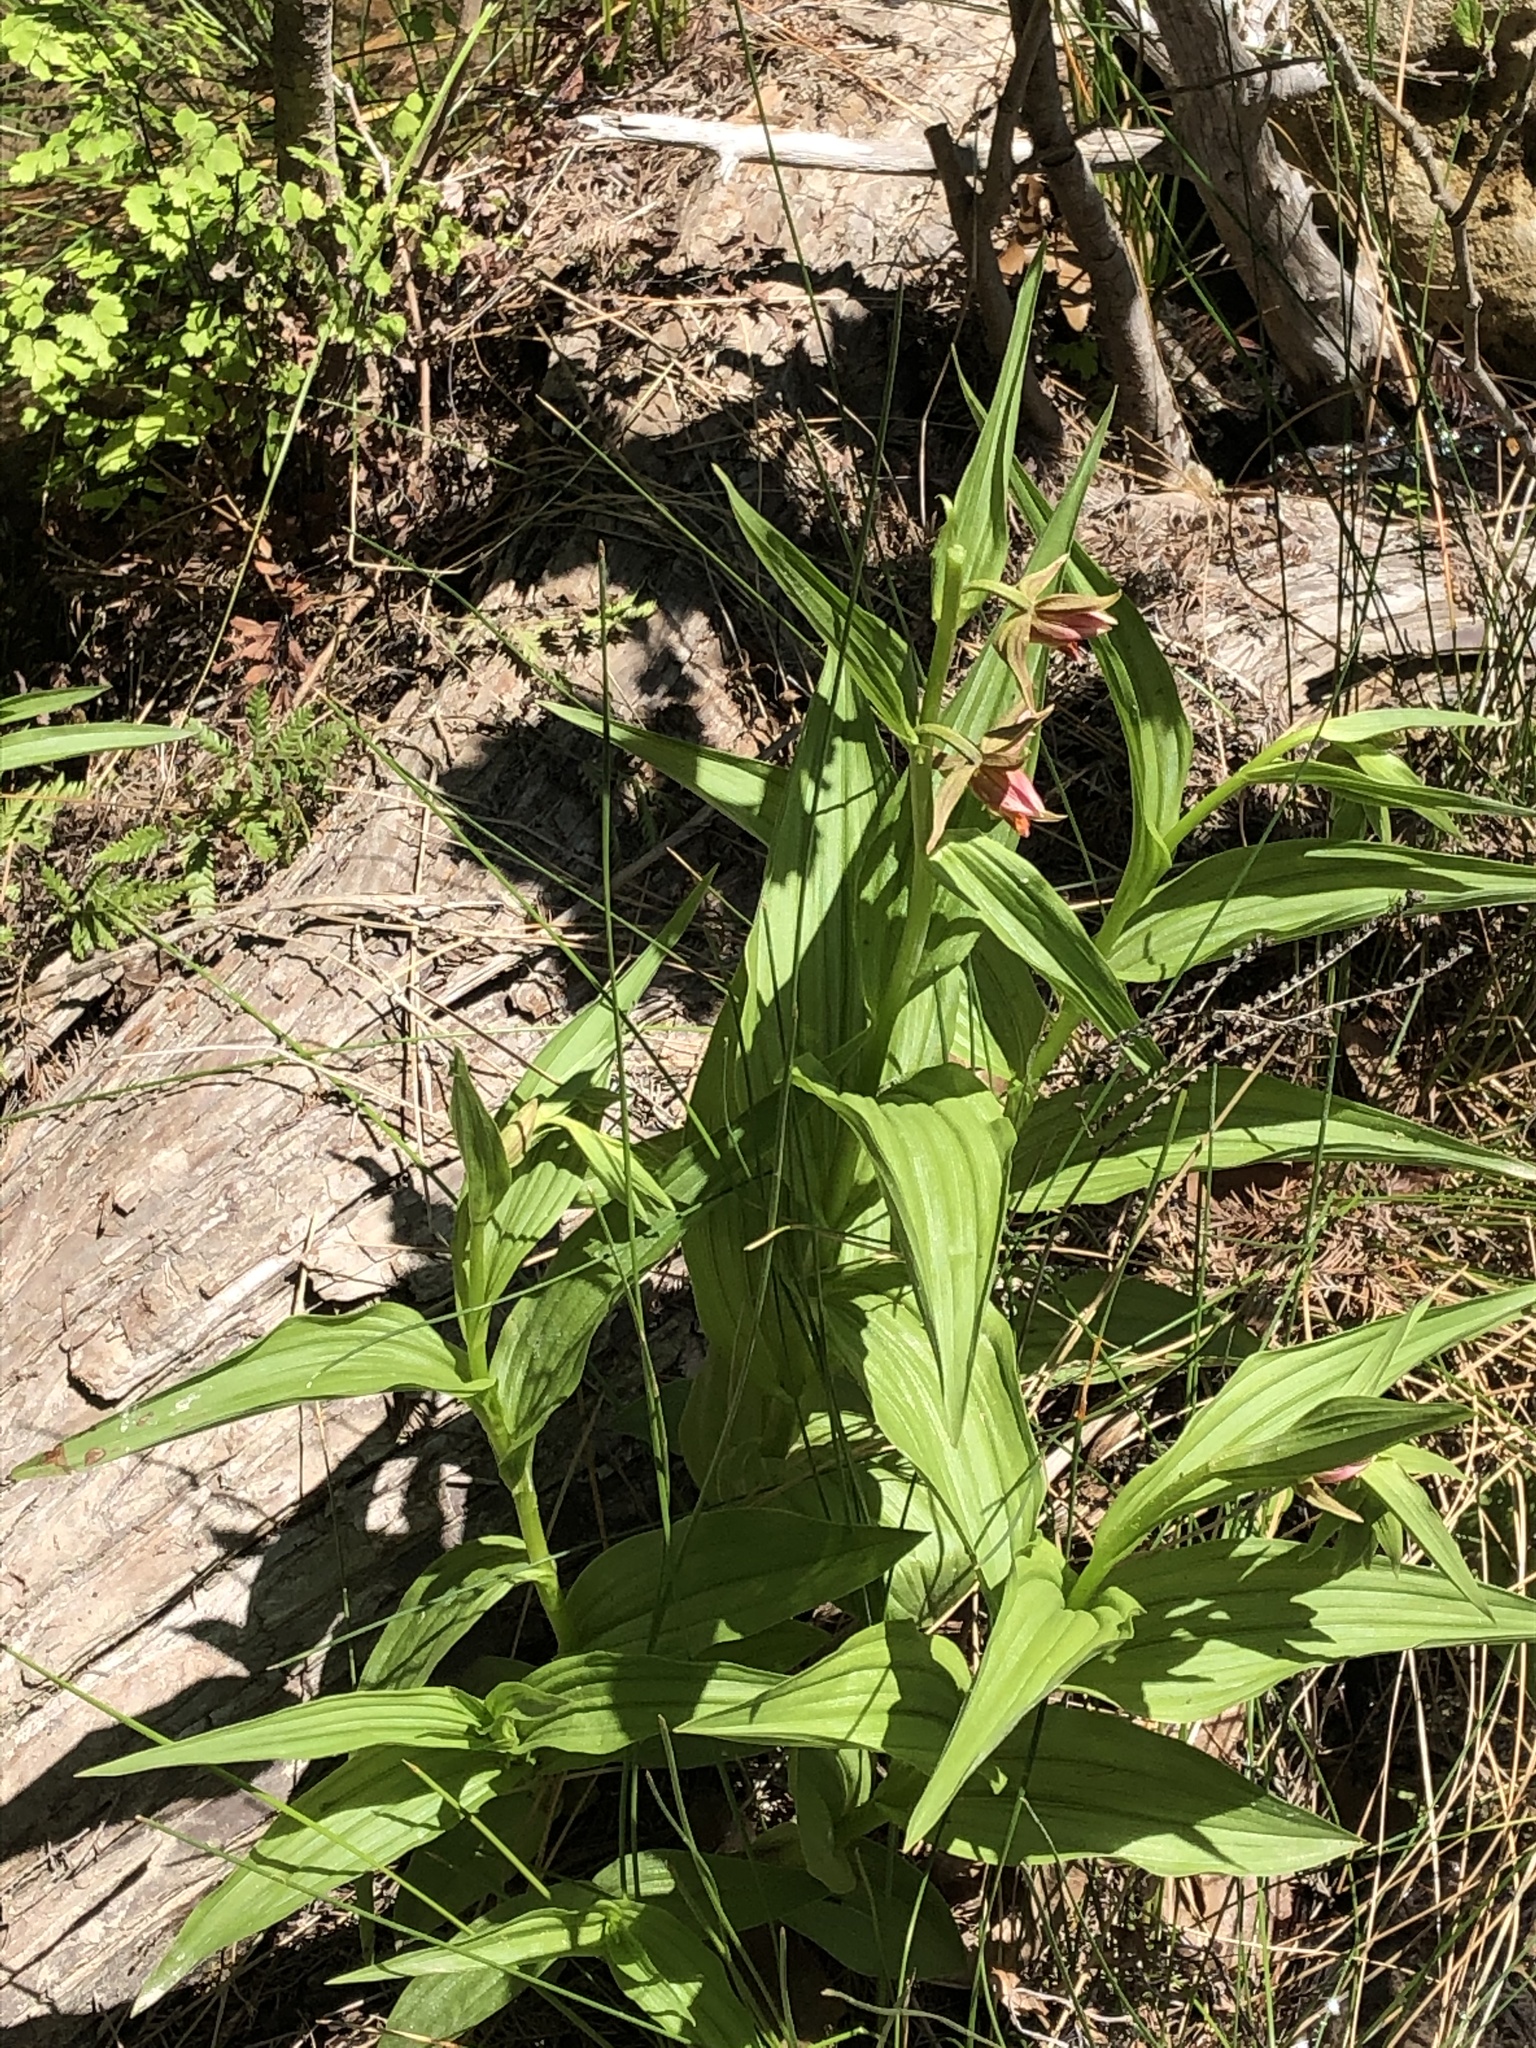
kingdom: Plantae
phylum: Tracheophyta
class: Liliopsida
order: Asparagales
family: Orchidaceae
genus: Epipactis
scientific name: Epipactis gigantea
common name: Chatterbox
